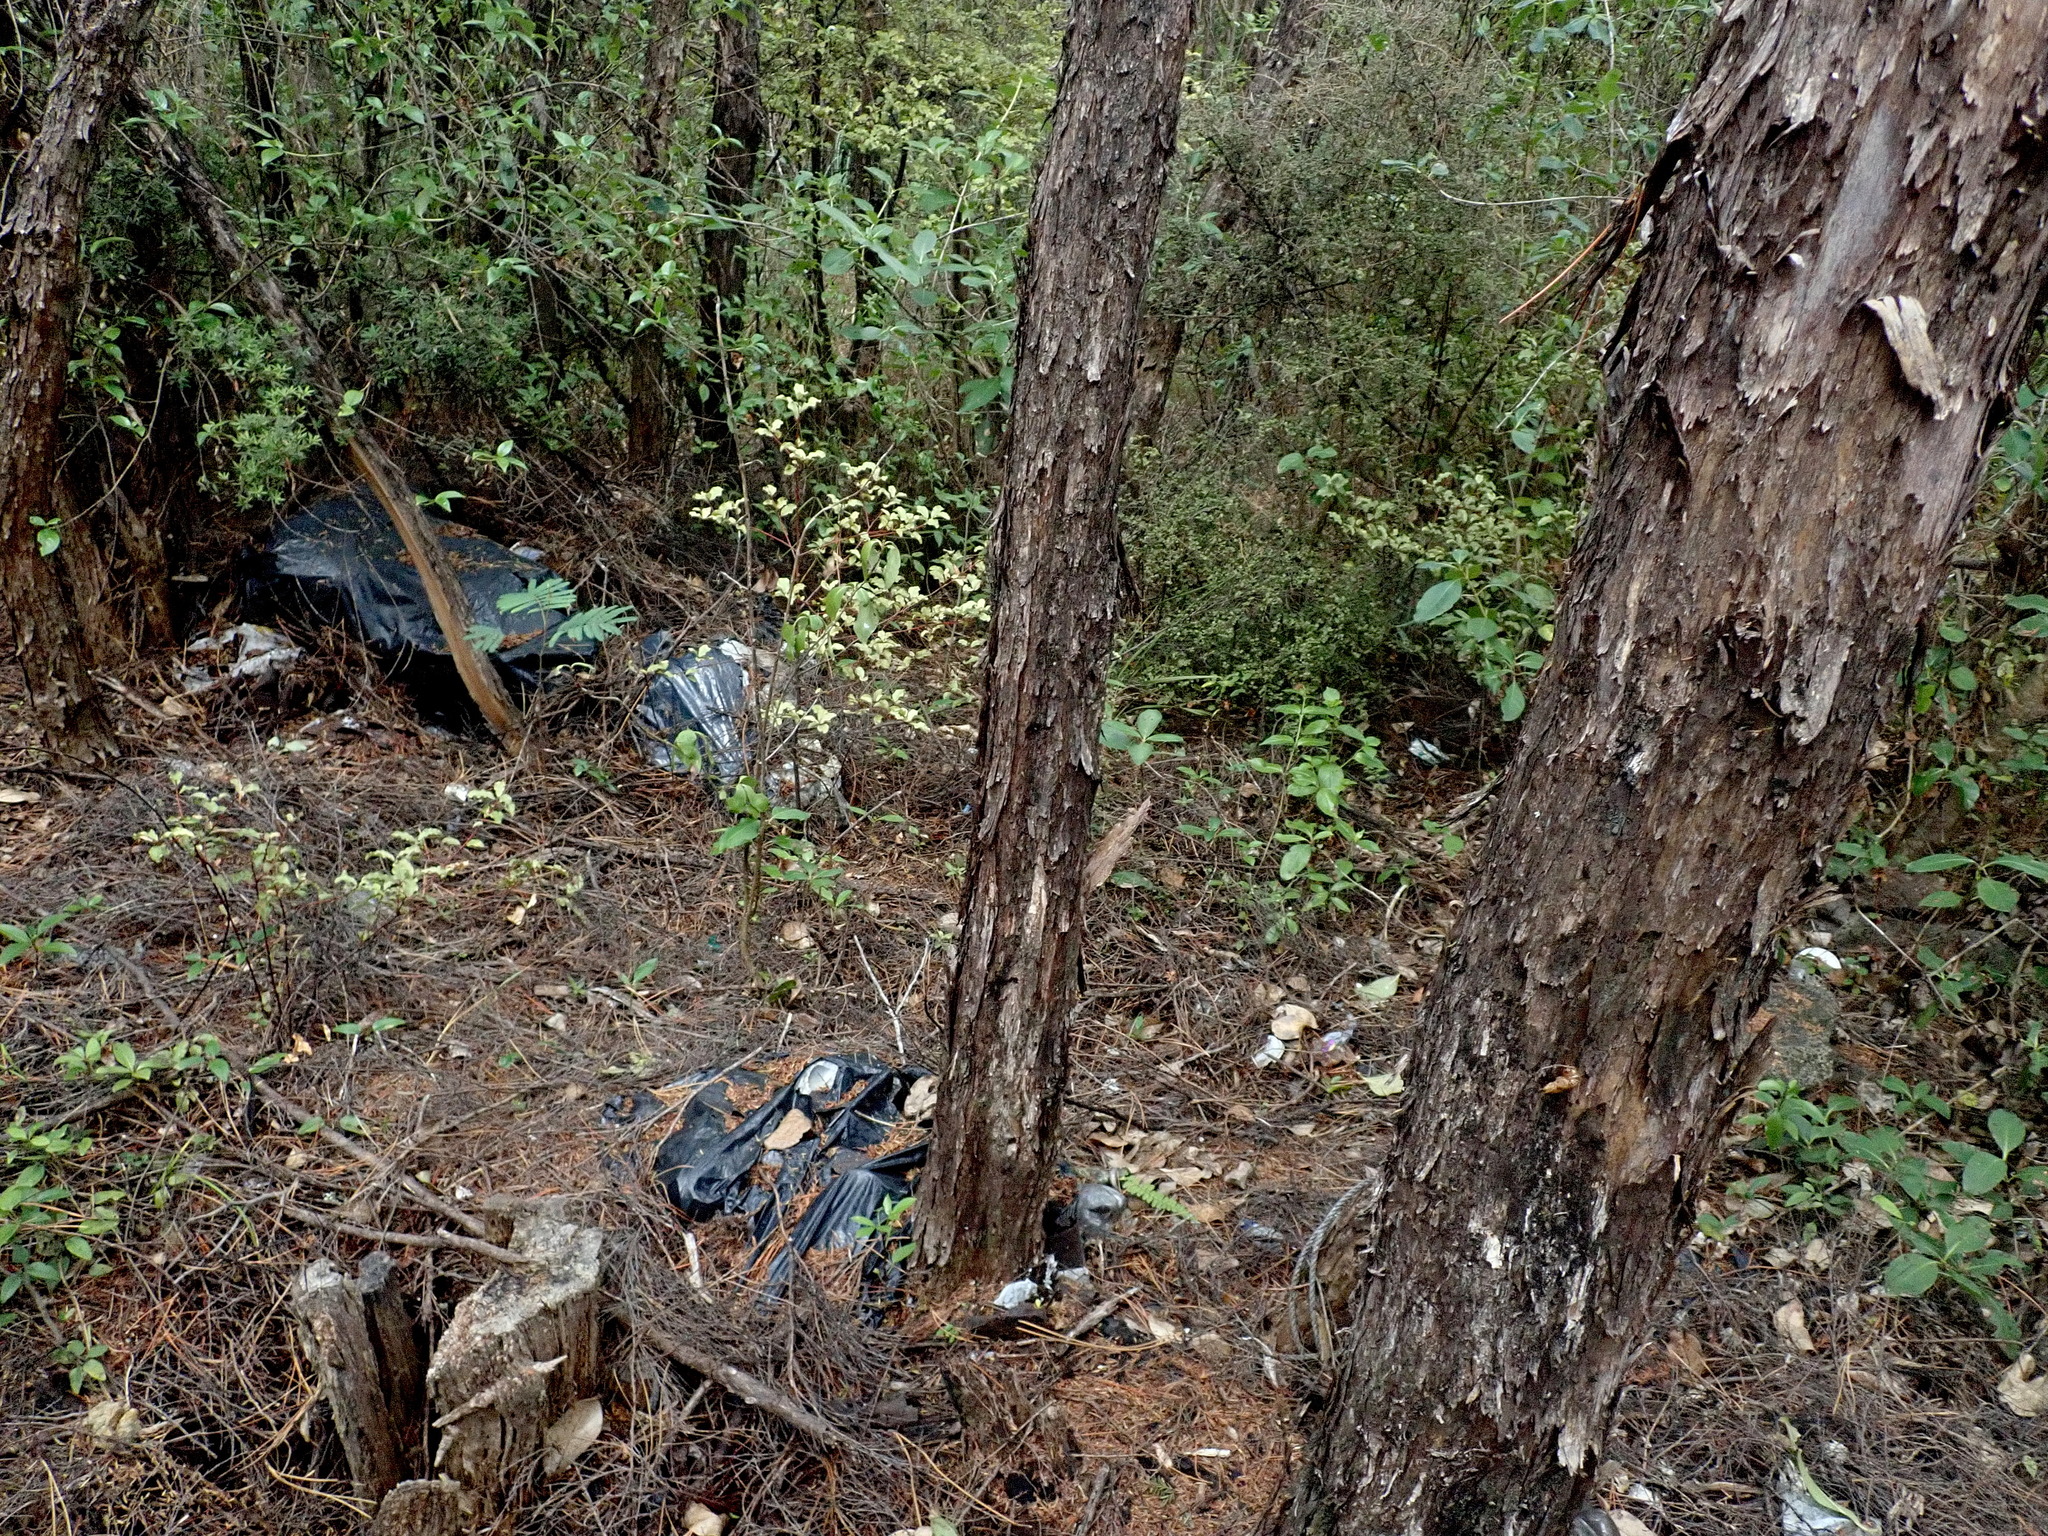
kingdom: Plantae
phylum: Tracheophyta
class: Magnoliopsida
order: Fabales
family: Fabaceae
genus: Paraserianthes
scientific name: Paraserianthes lophantha
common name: Plume albizia
